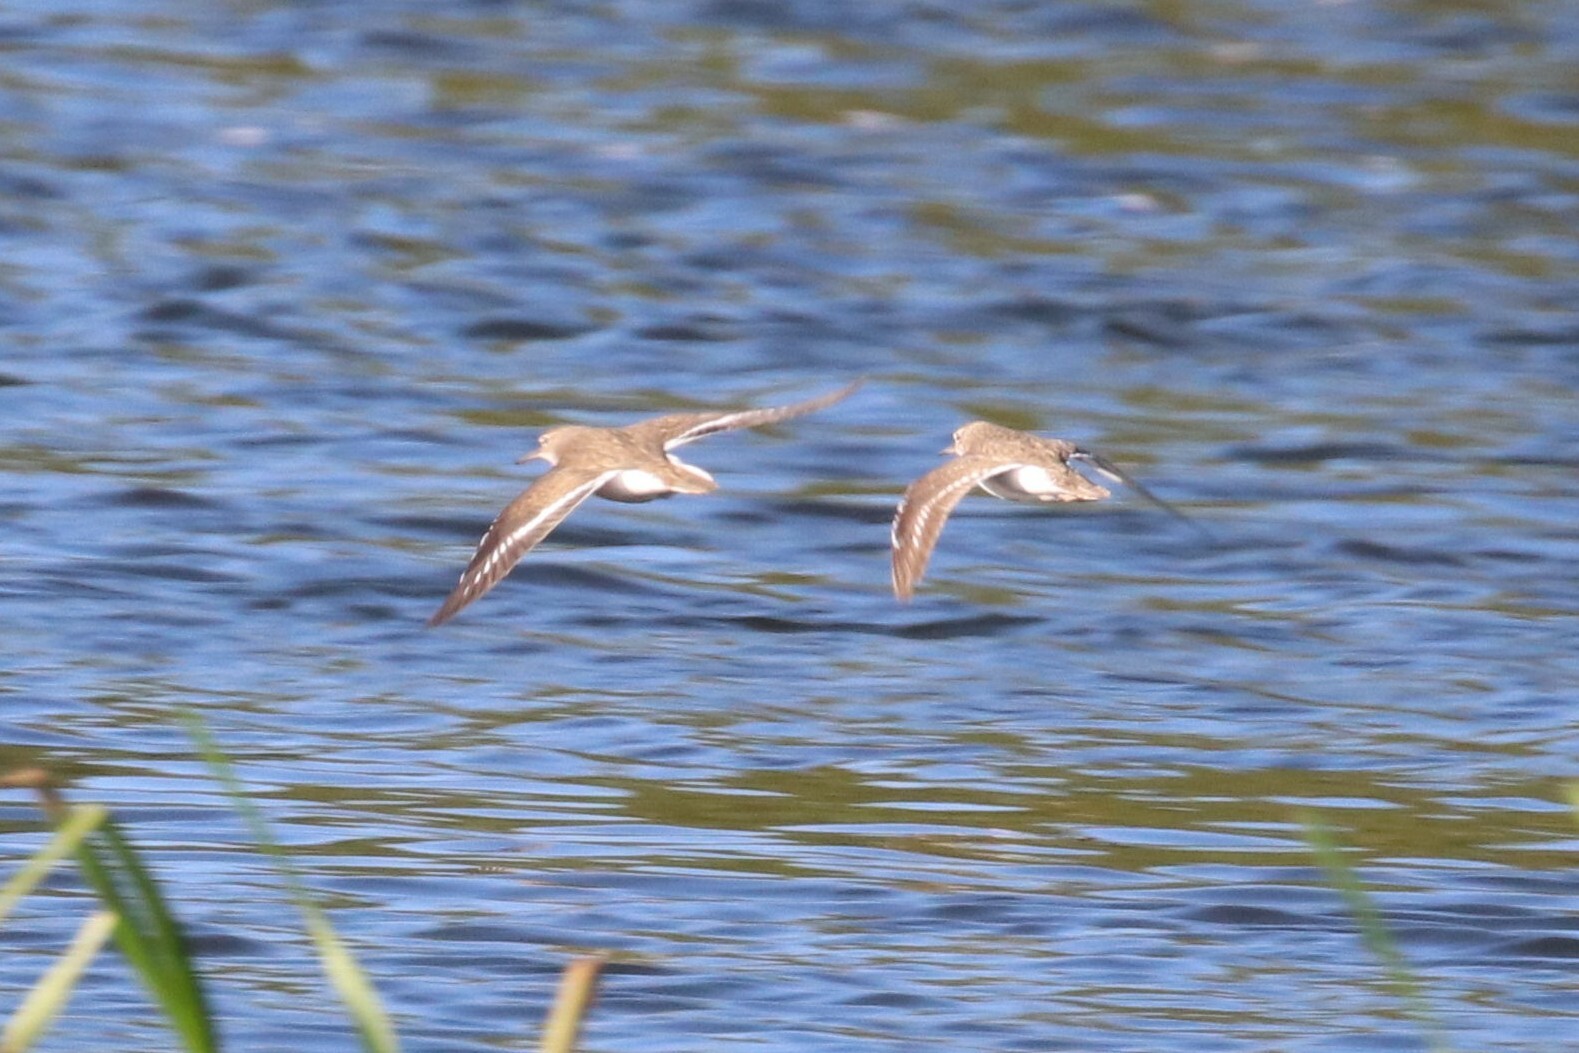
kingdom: Animalia
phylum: Chordata
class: Aves
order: Charadriiformes
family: Scolopacidae
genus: Calidris
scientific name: Calidris temminckii
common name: Temminck's stint
